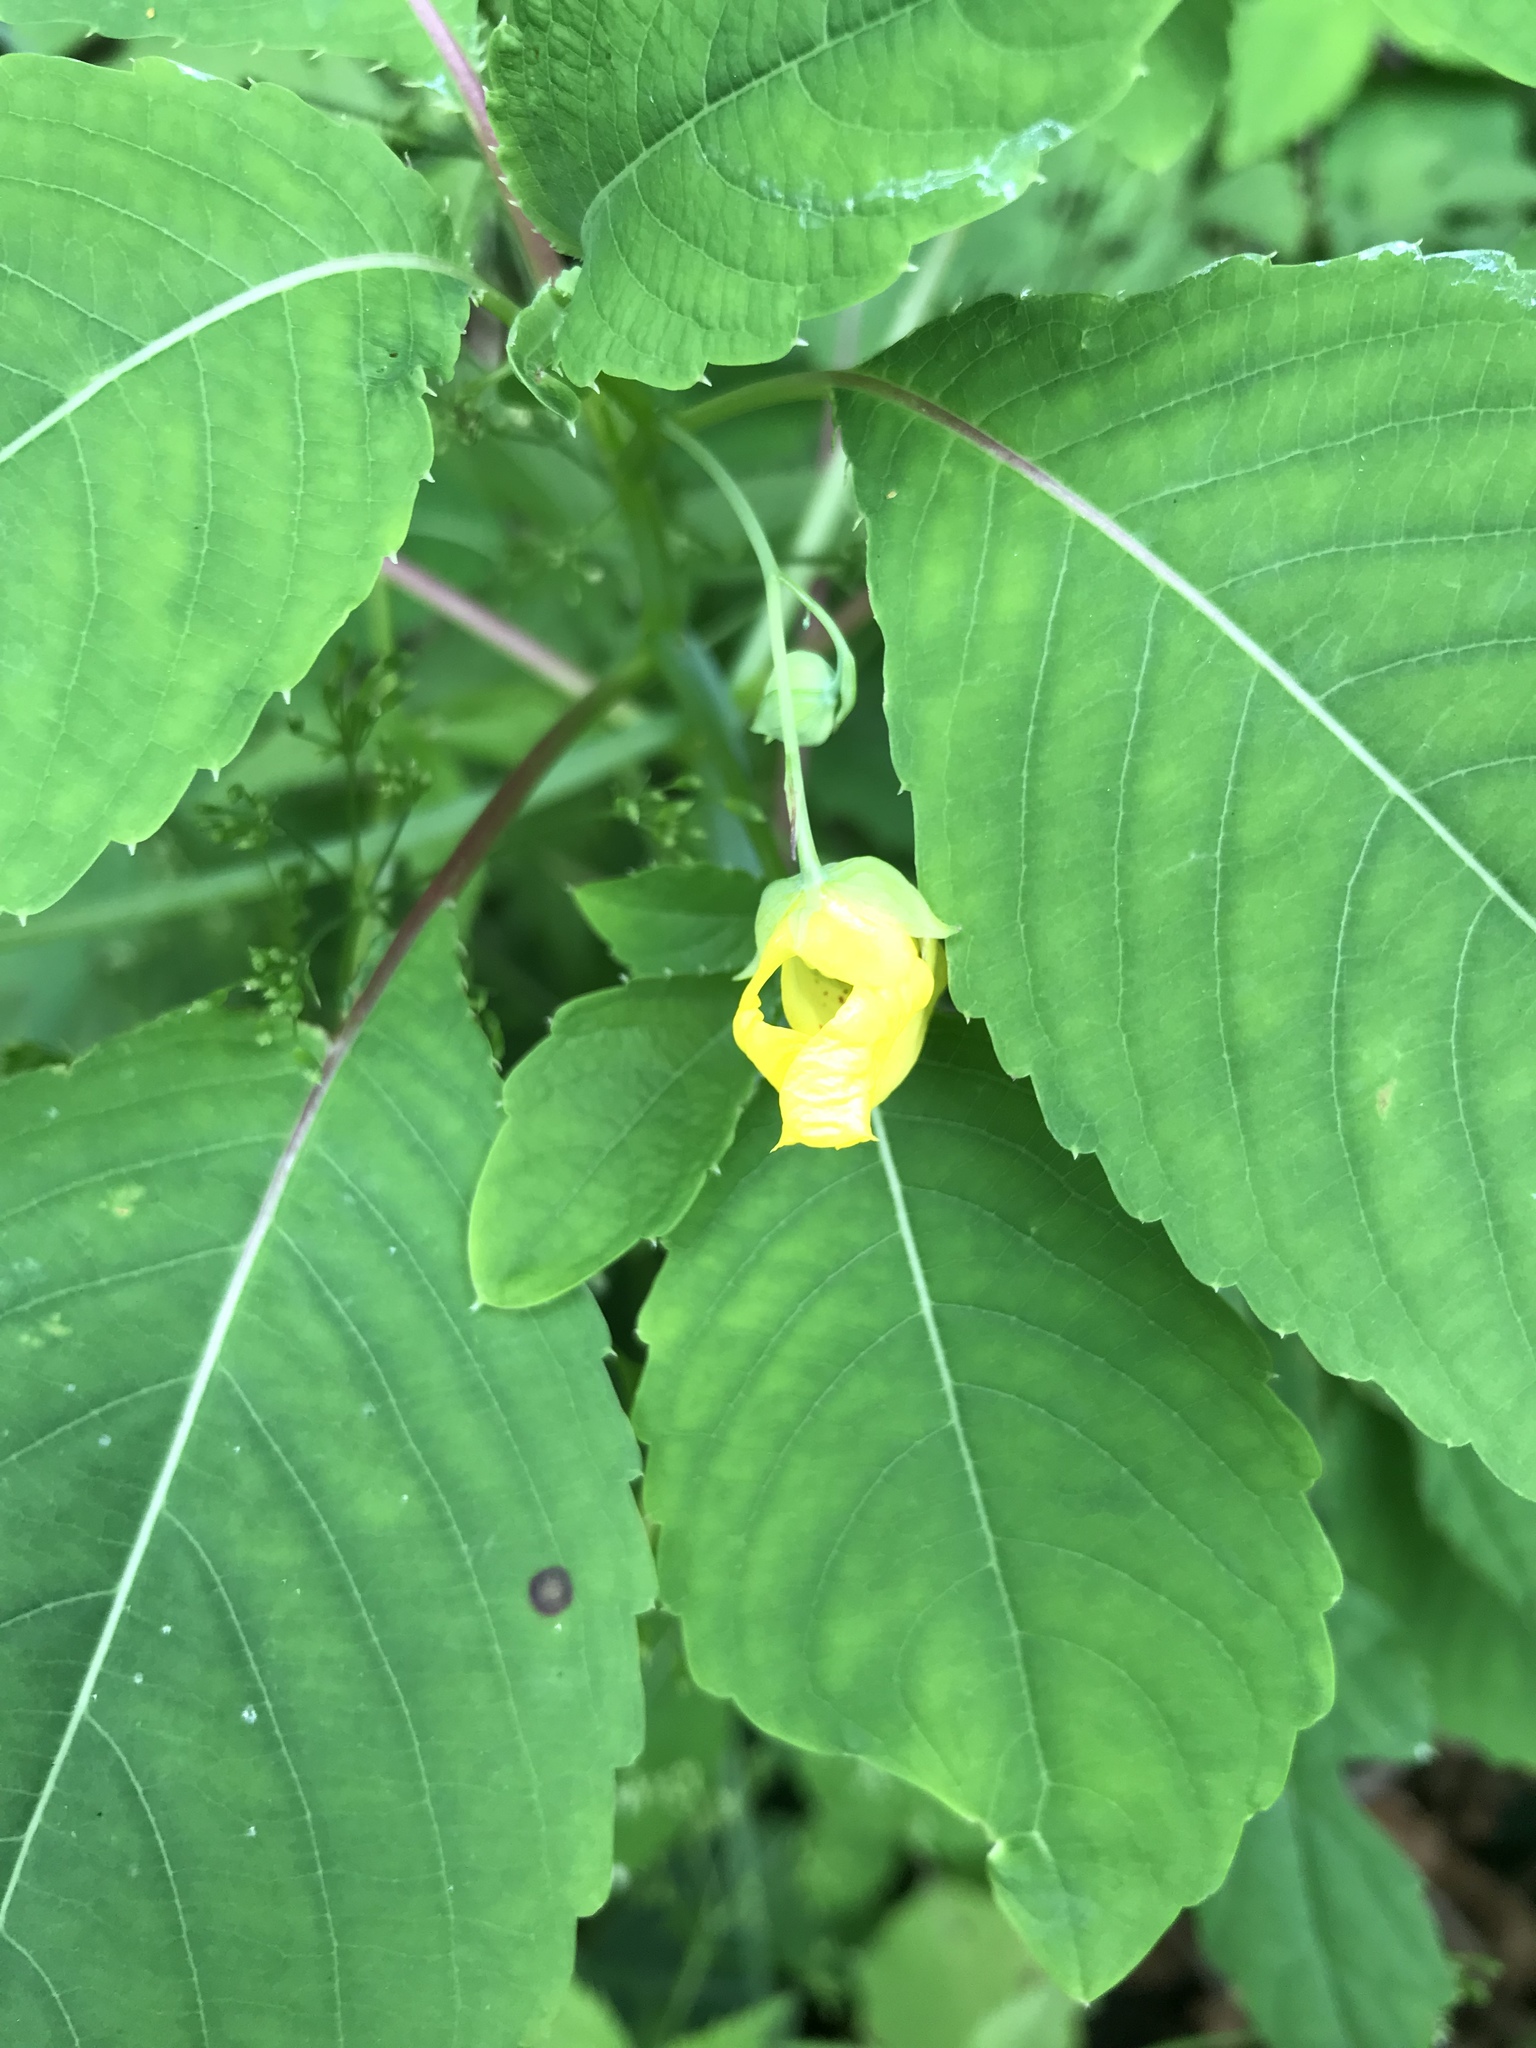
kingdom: Plantae
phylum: Tracheophyta
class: Magnoliopsida
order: Ericales
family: Balsaminaceae
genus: Impatiens
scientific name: Impatiens pallida
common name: Pale snapweed
